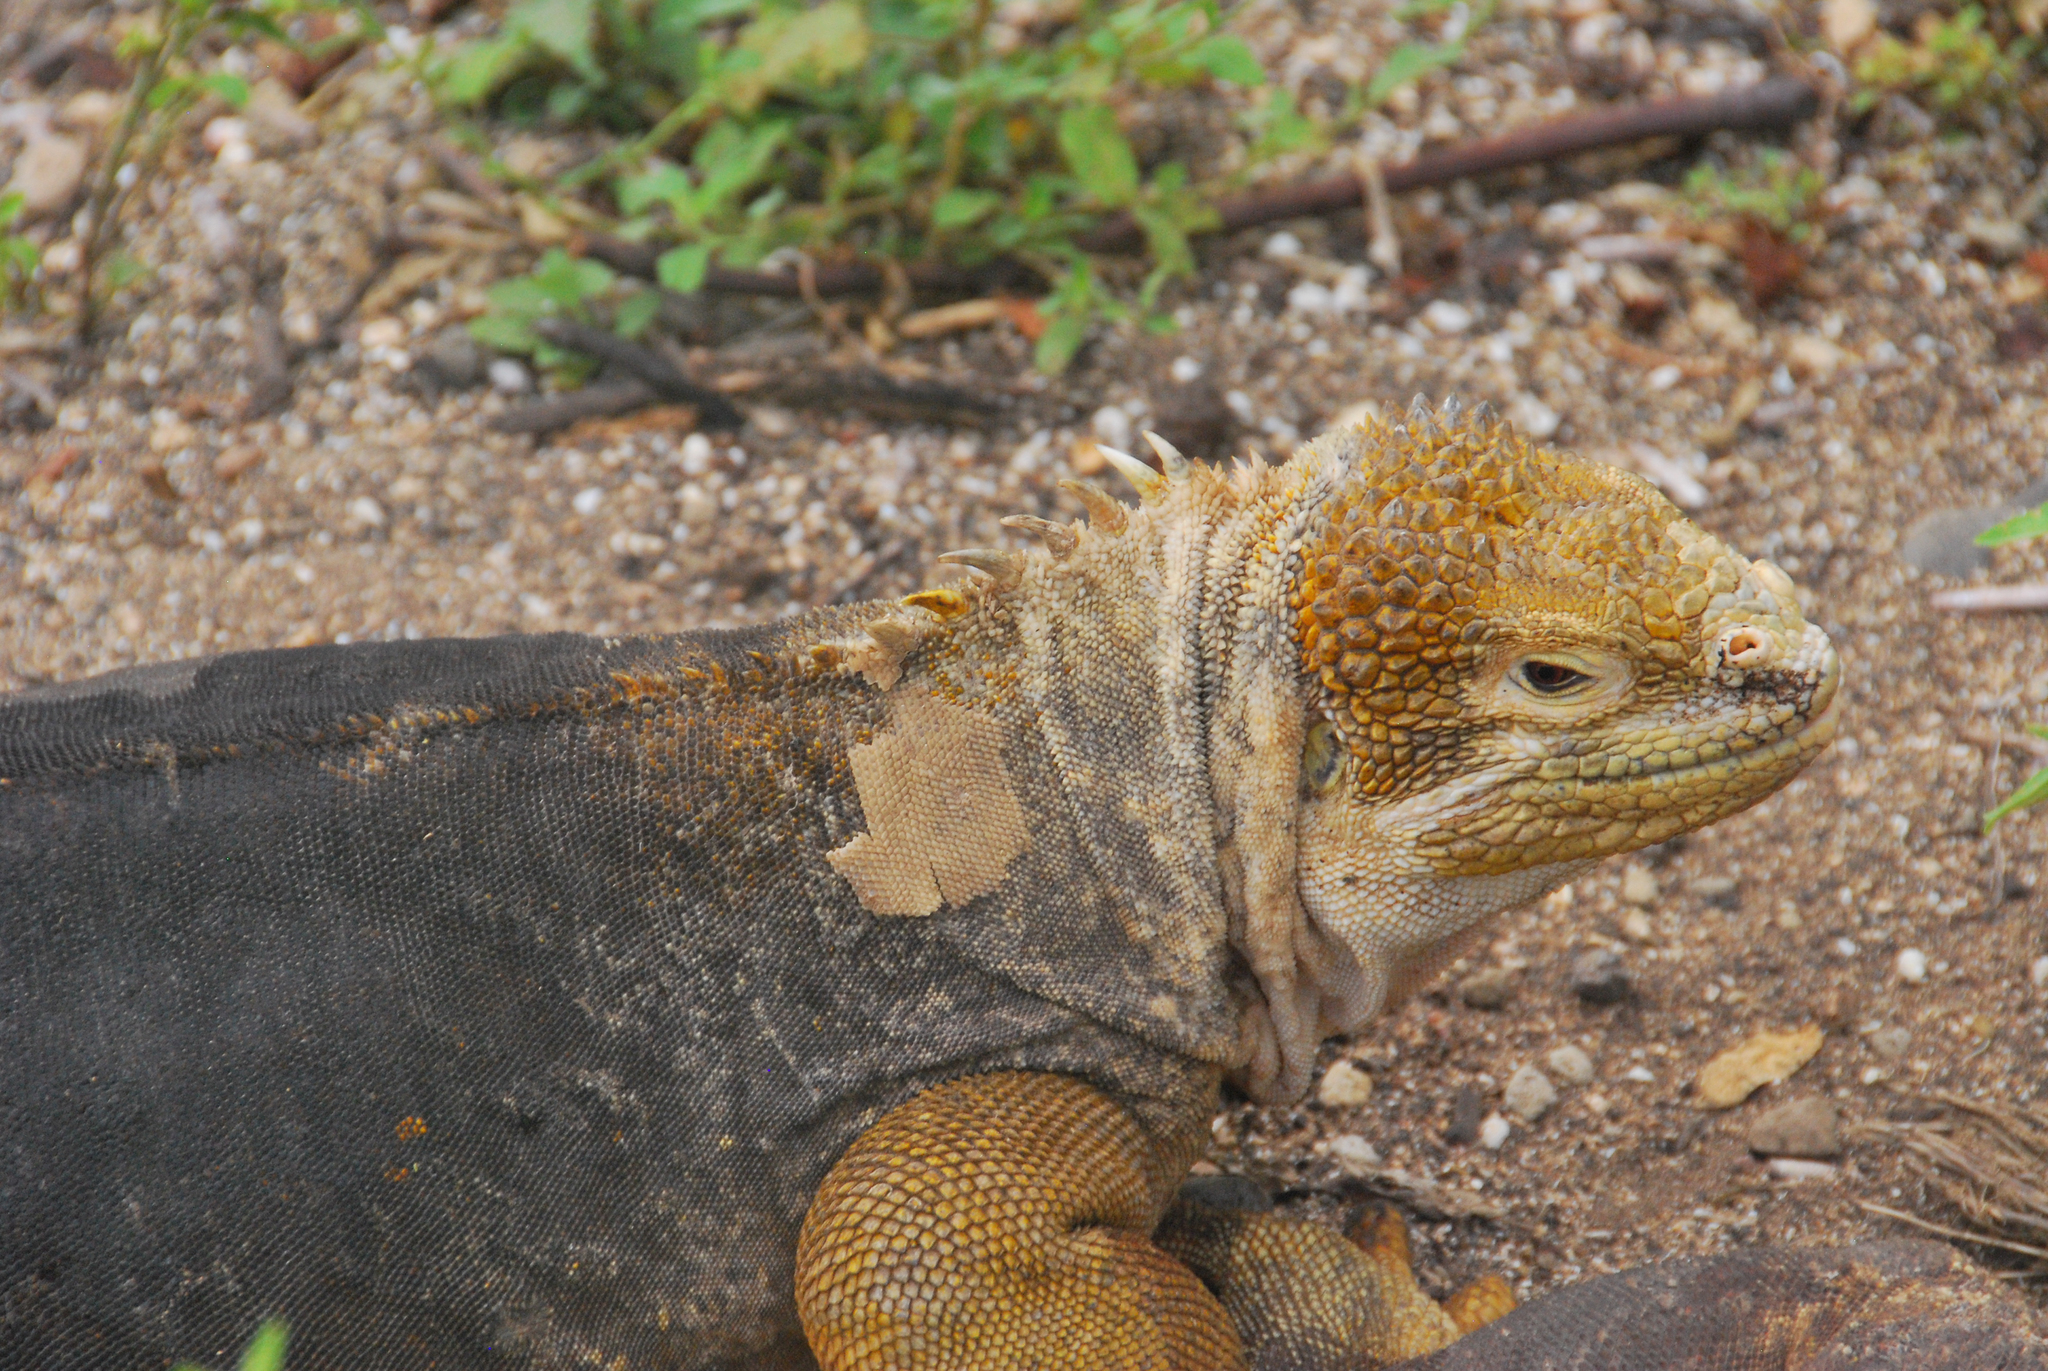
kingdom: Animalia
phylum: Chordata
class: Squamata
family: Iguanidae
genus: Conolophus
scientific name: Conolophus subcristatus
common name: Galapagos land iguana
